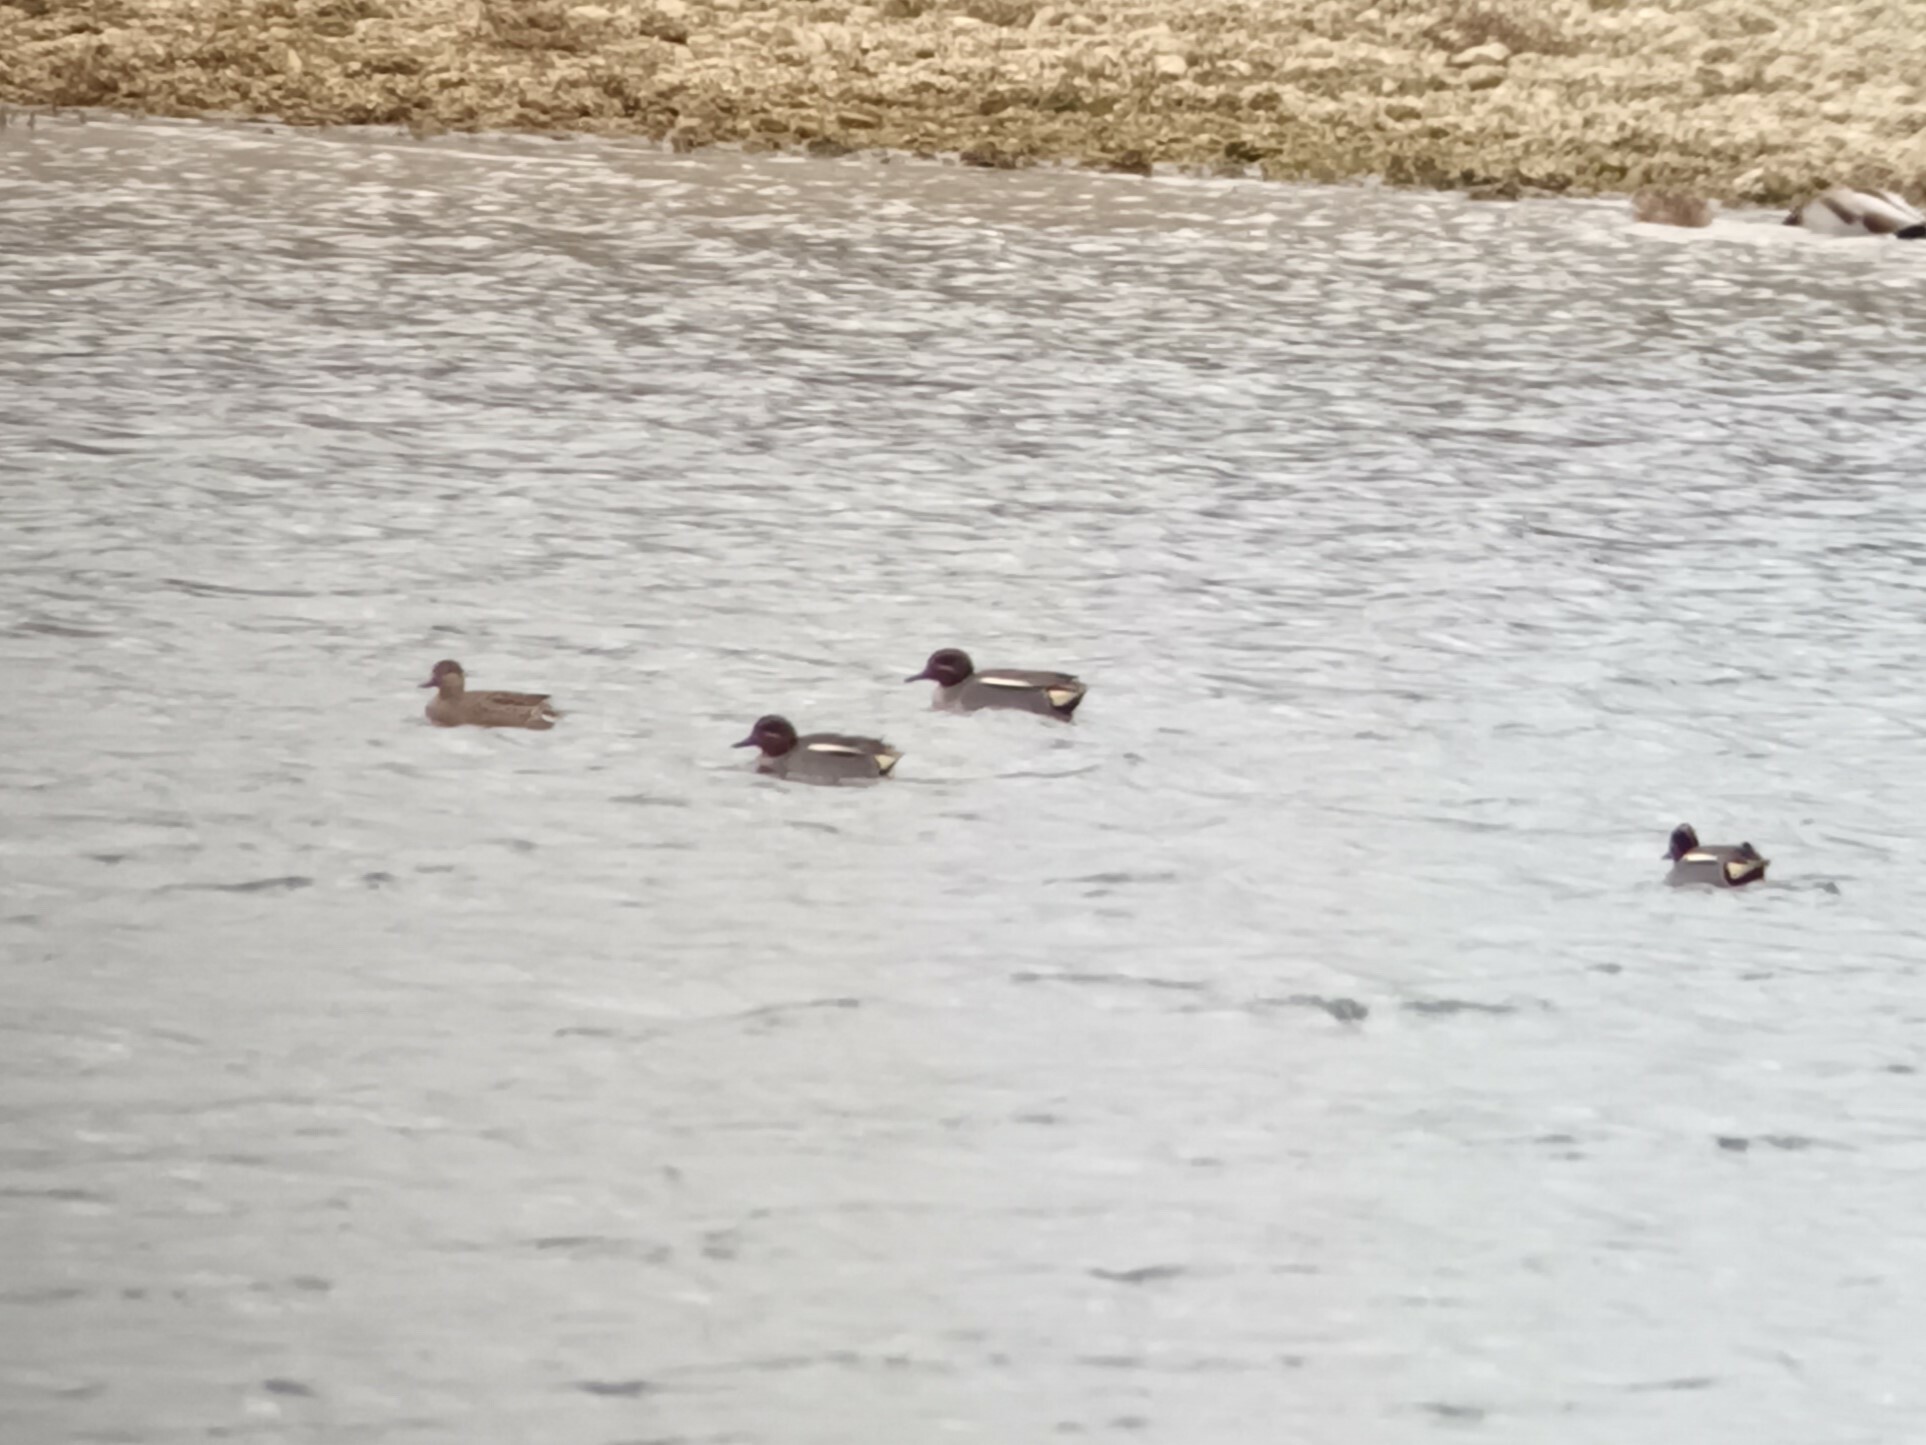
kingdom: Animalia
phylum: Chordata
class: Aves
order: Anseriformes
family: Anatidae
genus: Anas
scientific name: Anas crecca
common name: Eurasian teal
